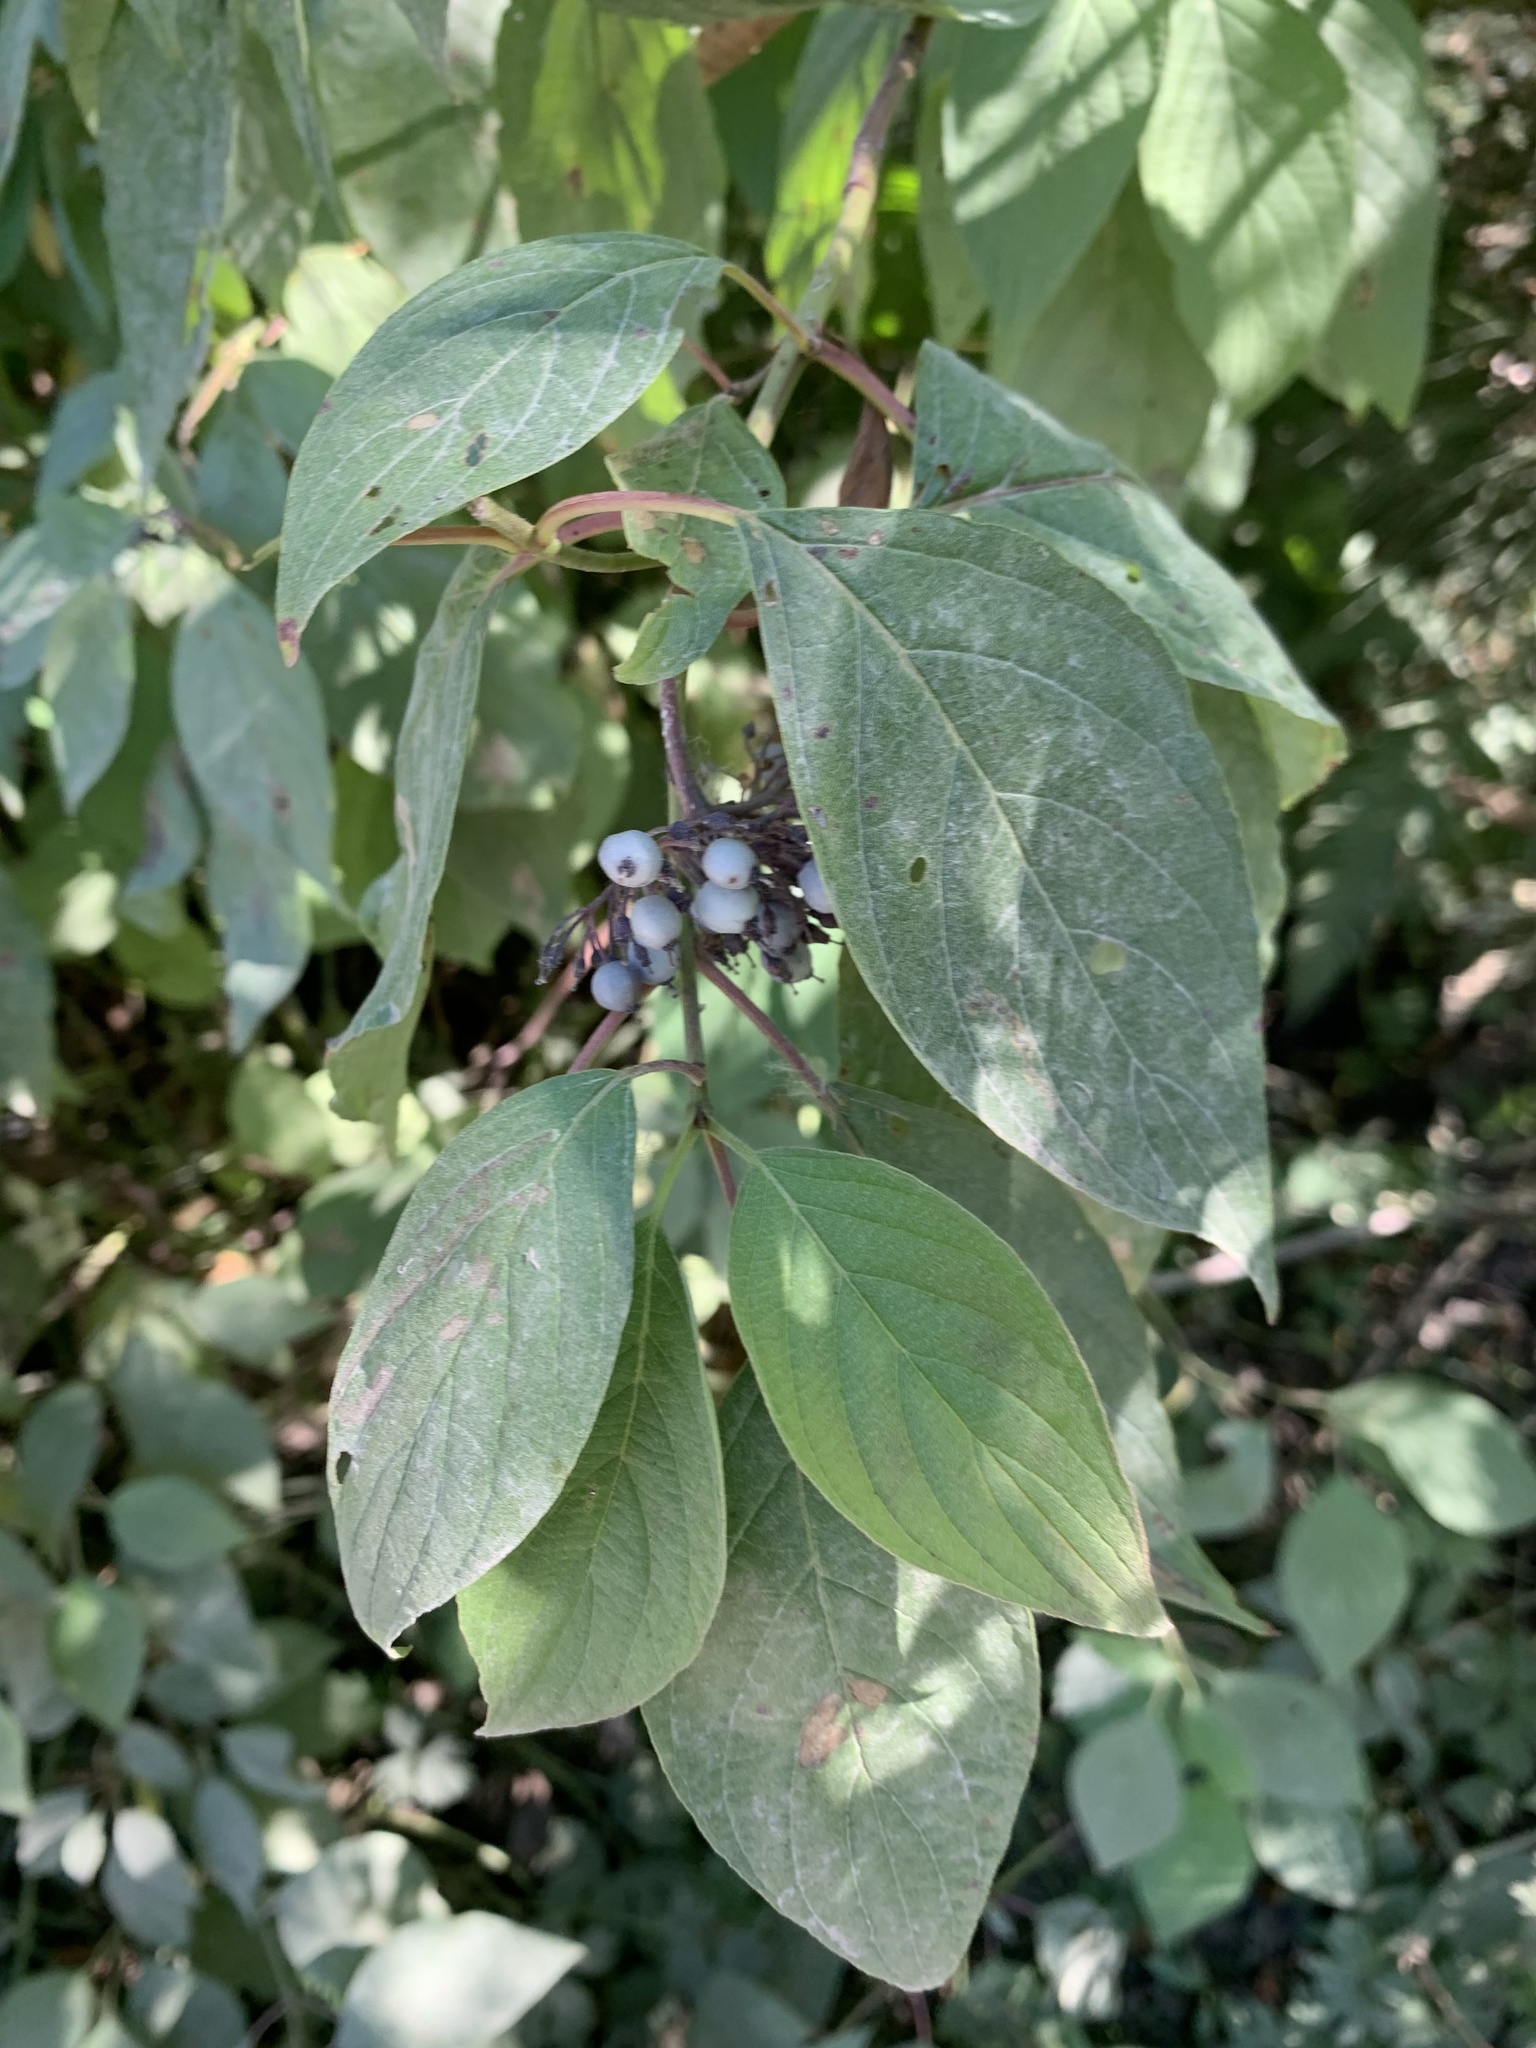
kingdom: Plantae
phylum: Tracheophyta
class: Magnoliopsida
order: Cornales
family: Cornaceae
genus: Cornus
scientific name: Cornus sericea
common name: Red-osier dogwood
